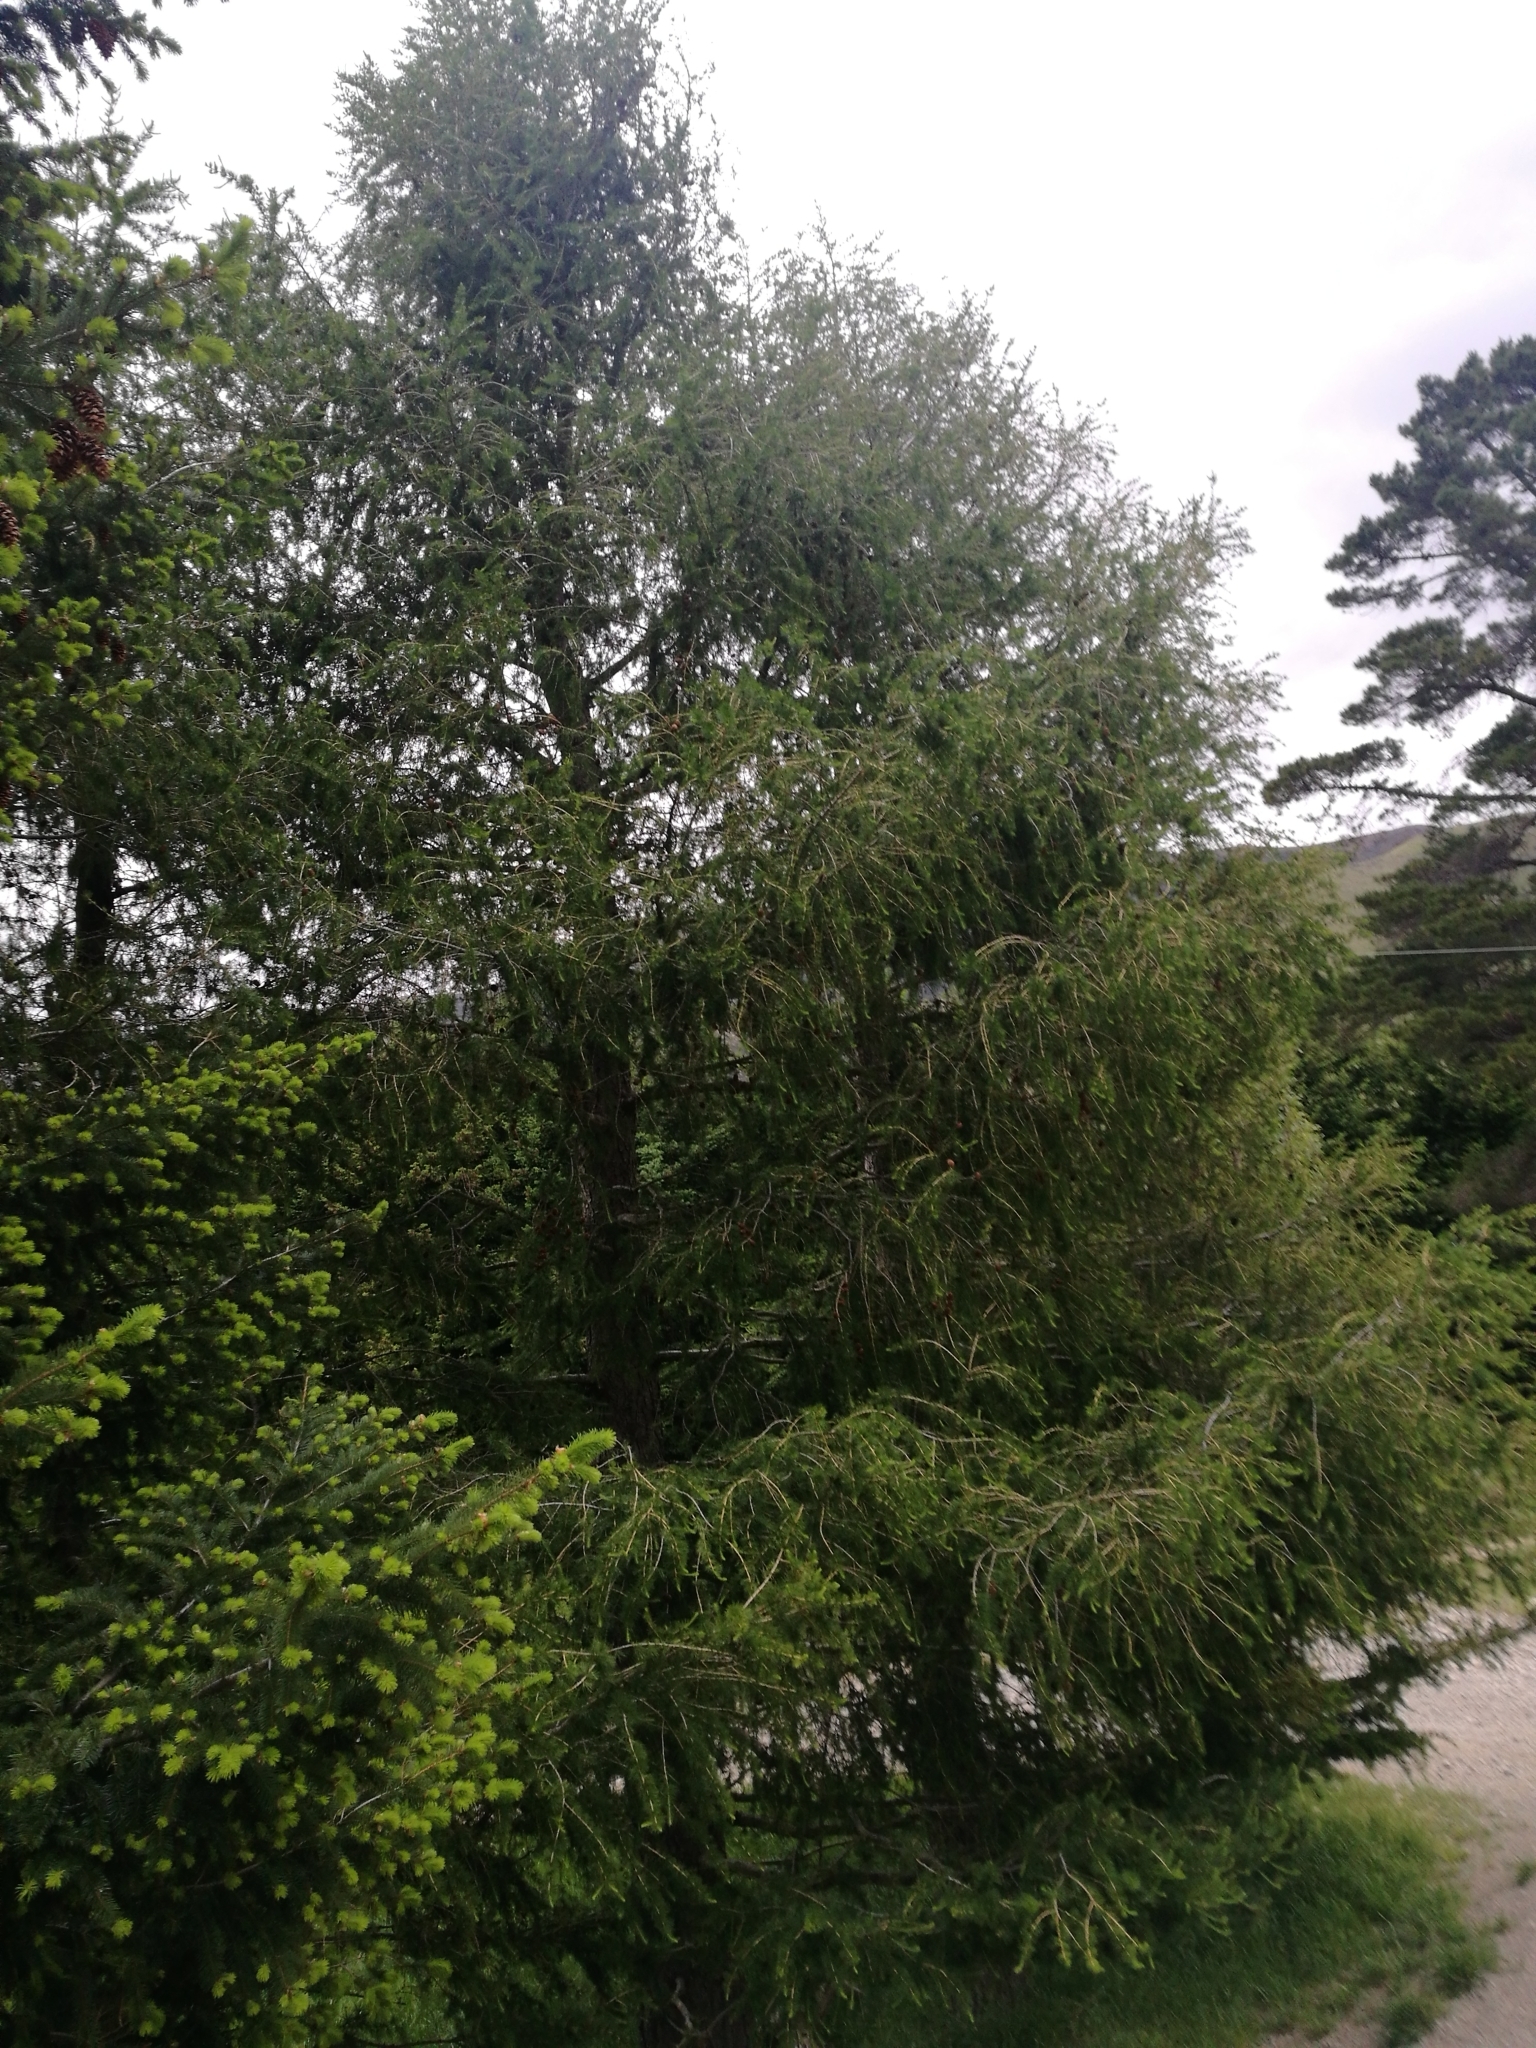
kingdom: Plantae
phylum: Tracheophyta
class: Pinopsida
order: Pinales
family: Pinaceae
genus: Larix
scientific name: Larix decidua
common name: European larch
